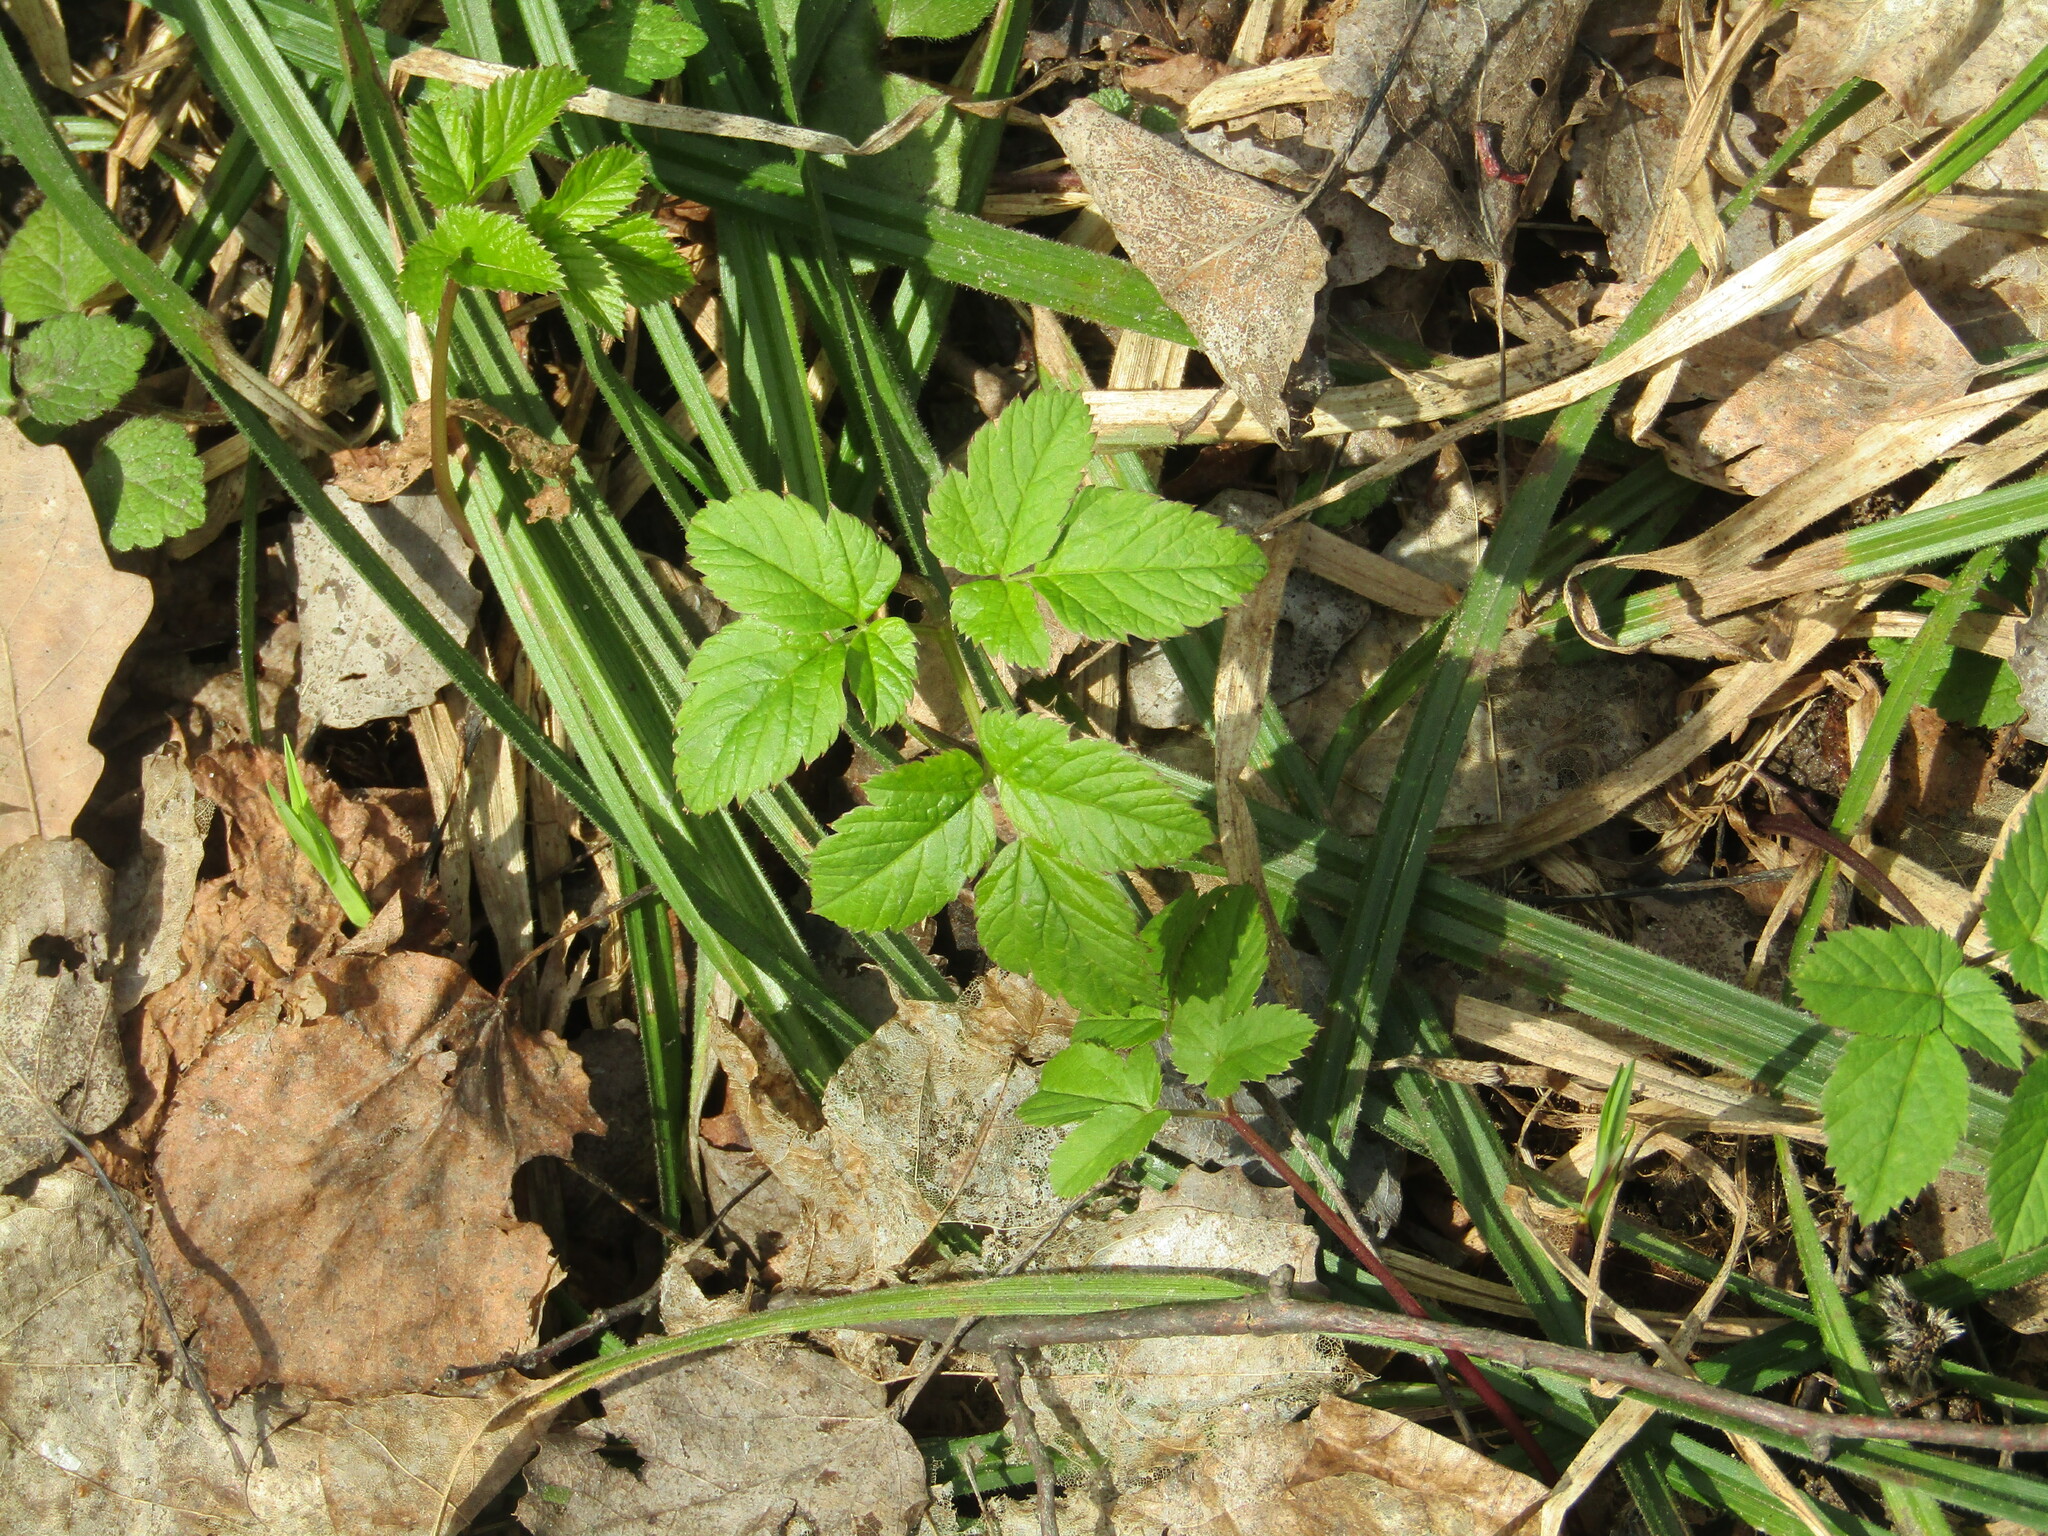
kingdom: Plantae
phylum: Tracheophyta
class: Magnoliopsida
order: Apiales
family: Apiaceae
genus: Aegopodium
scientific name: Aegopodium podagraria
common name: Ground-elder
